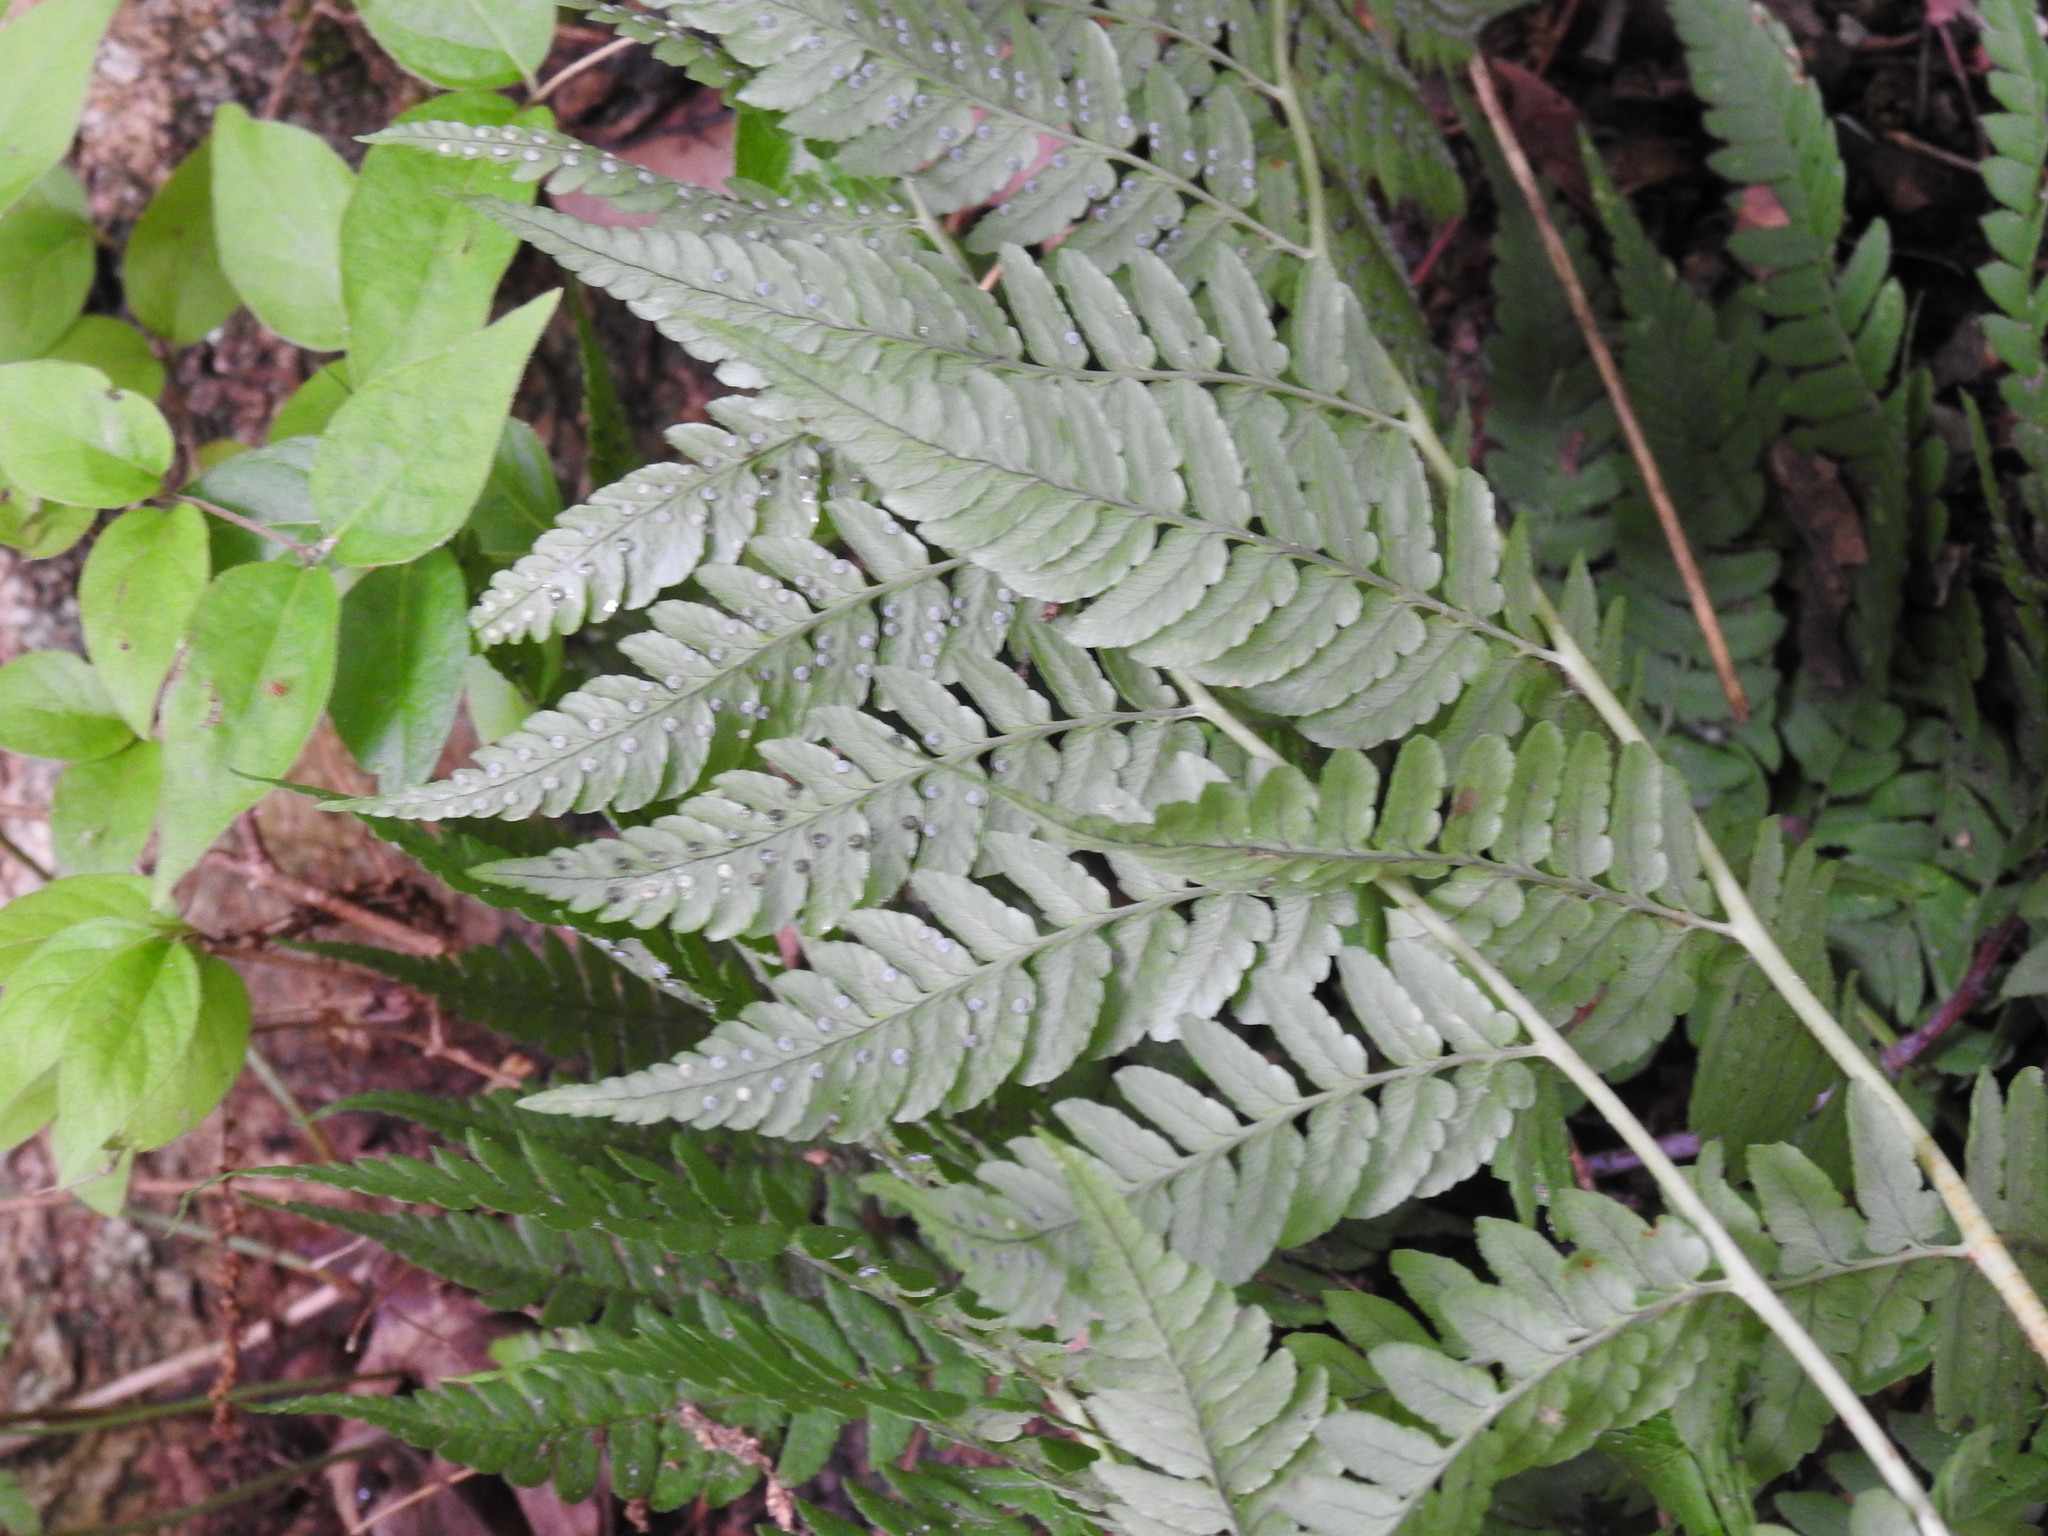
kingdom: Plantae
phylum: Tracheophyta
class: Polypodiopsida
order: Polypodiales
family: Dryopteridaceae
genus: Dryopteris
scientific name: Dryopteris marginalis
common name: Marginal wood fern
